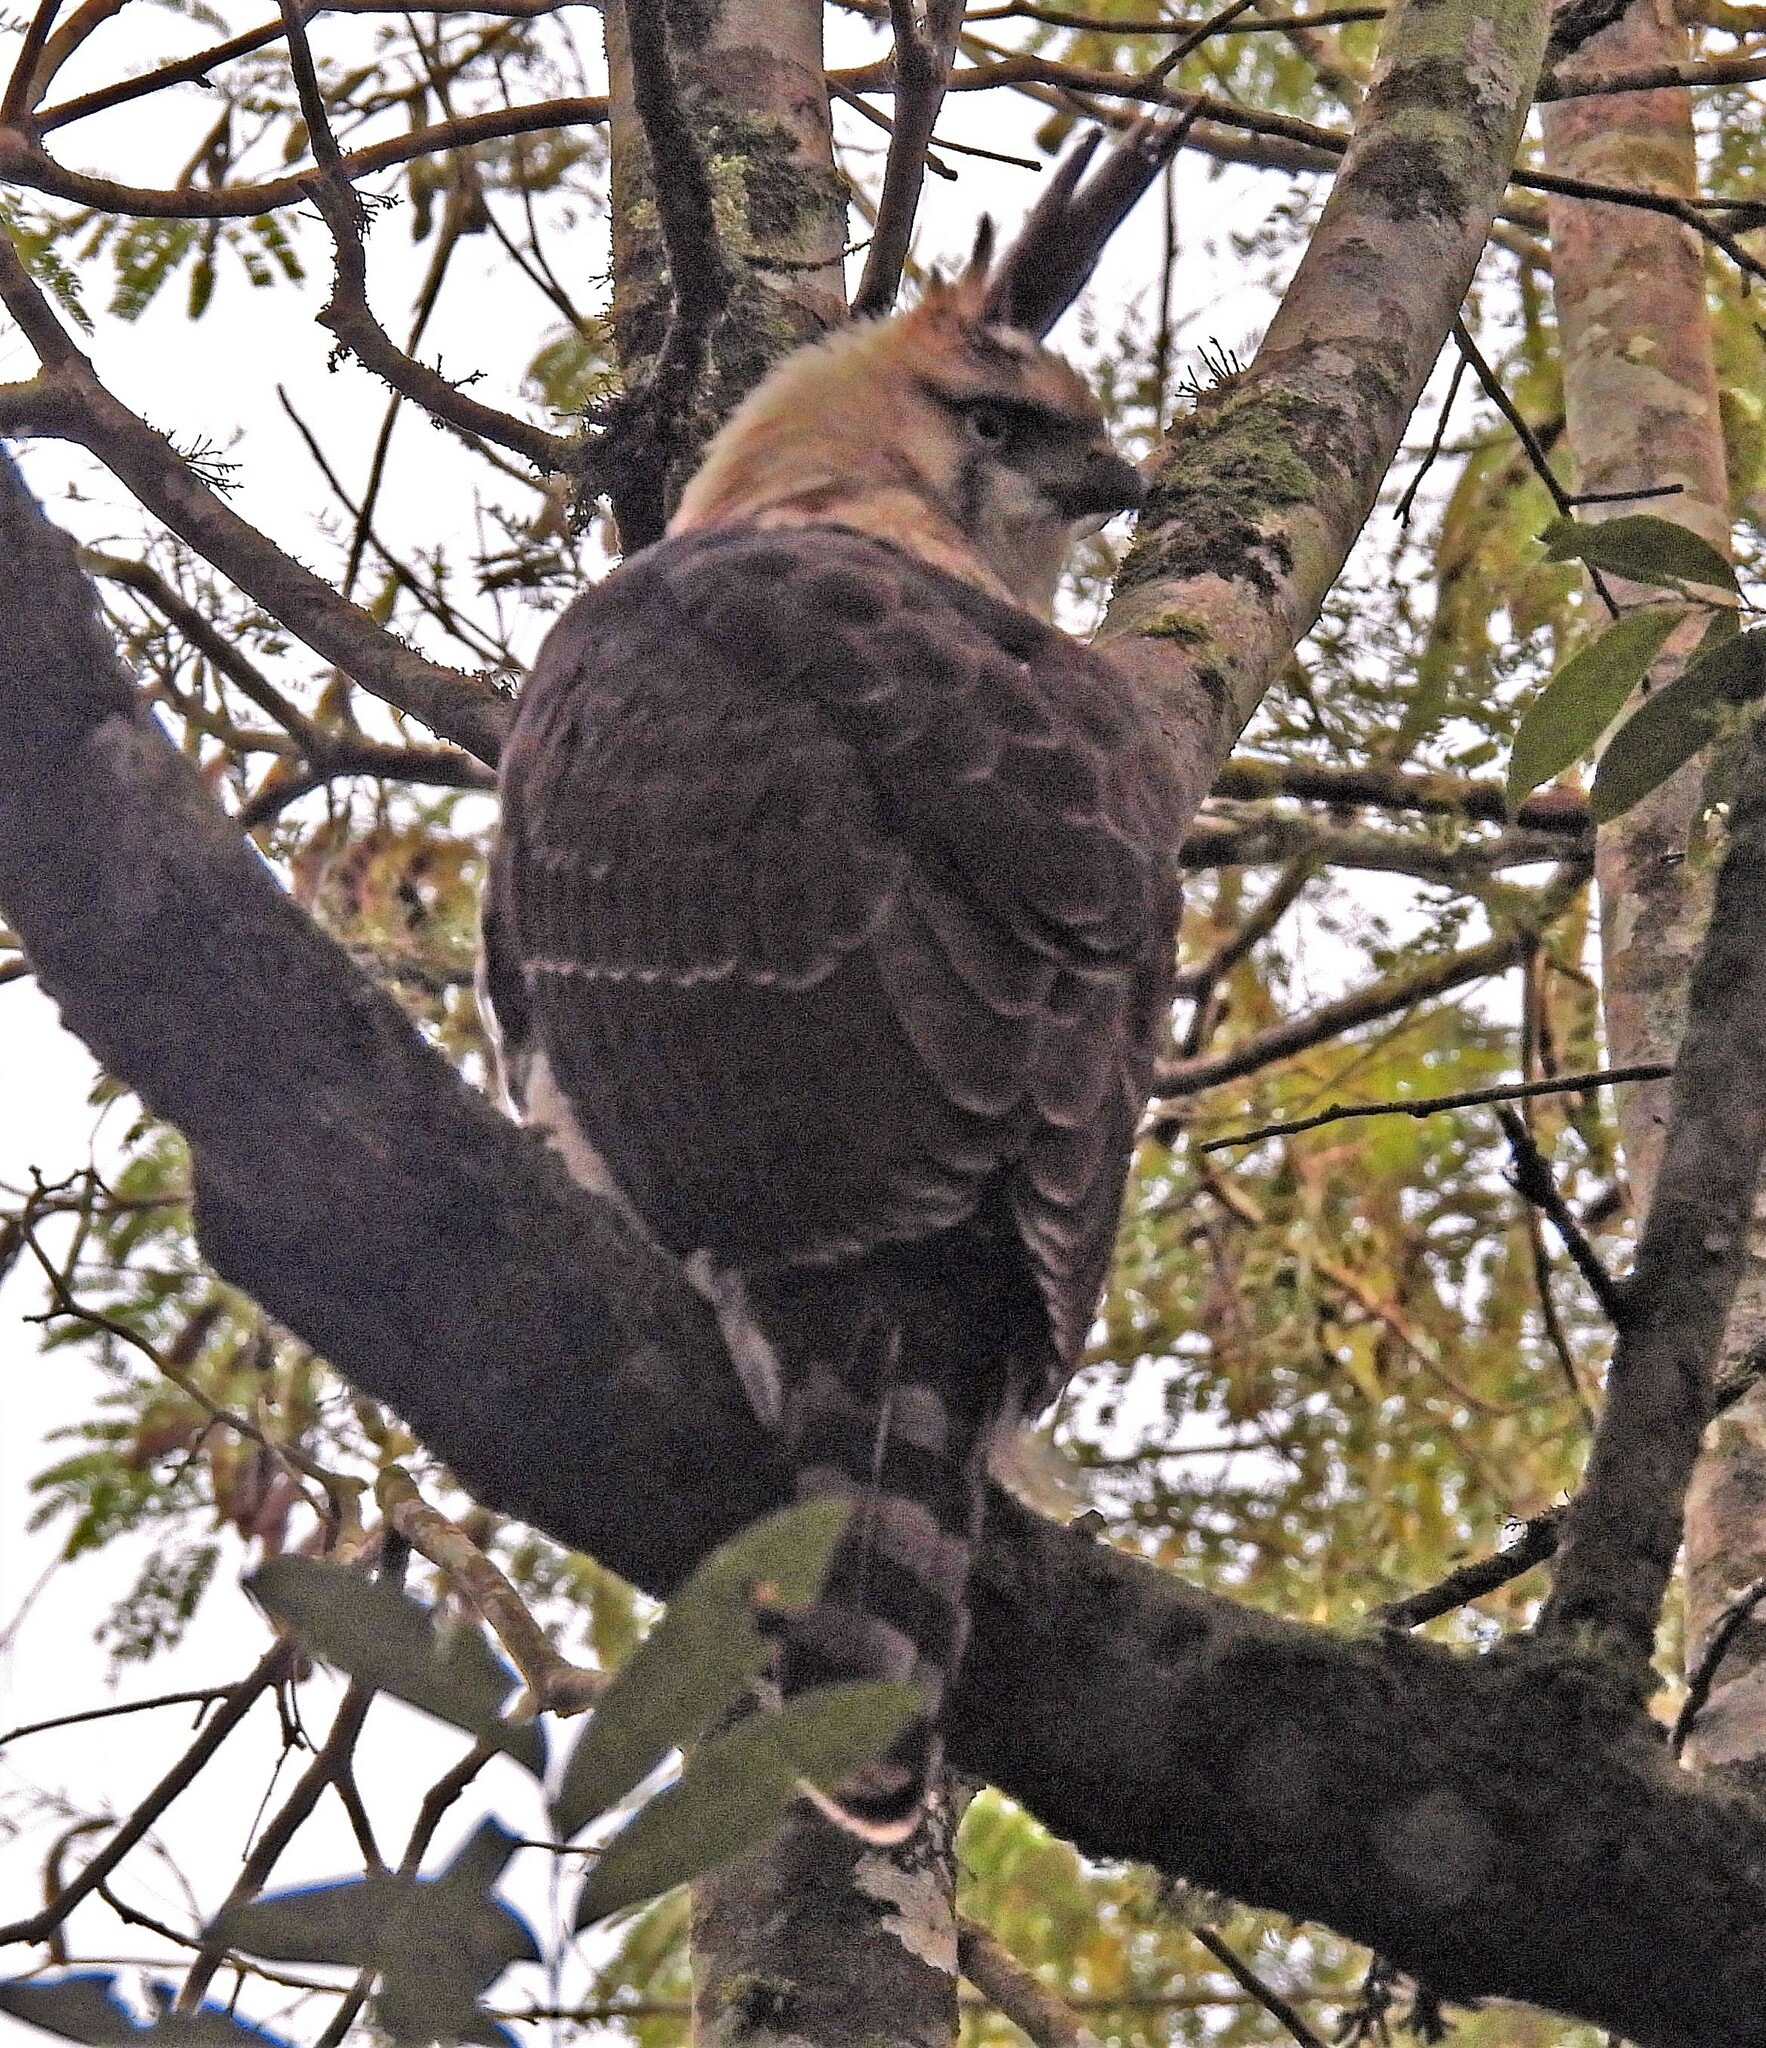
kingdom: Animalia
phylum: Chordata
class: Aves
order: Accipitriformes
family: Accipitridae
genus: Spizaetus
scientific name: Spizaetus ornatus
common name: Ornate hawk-eagle
